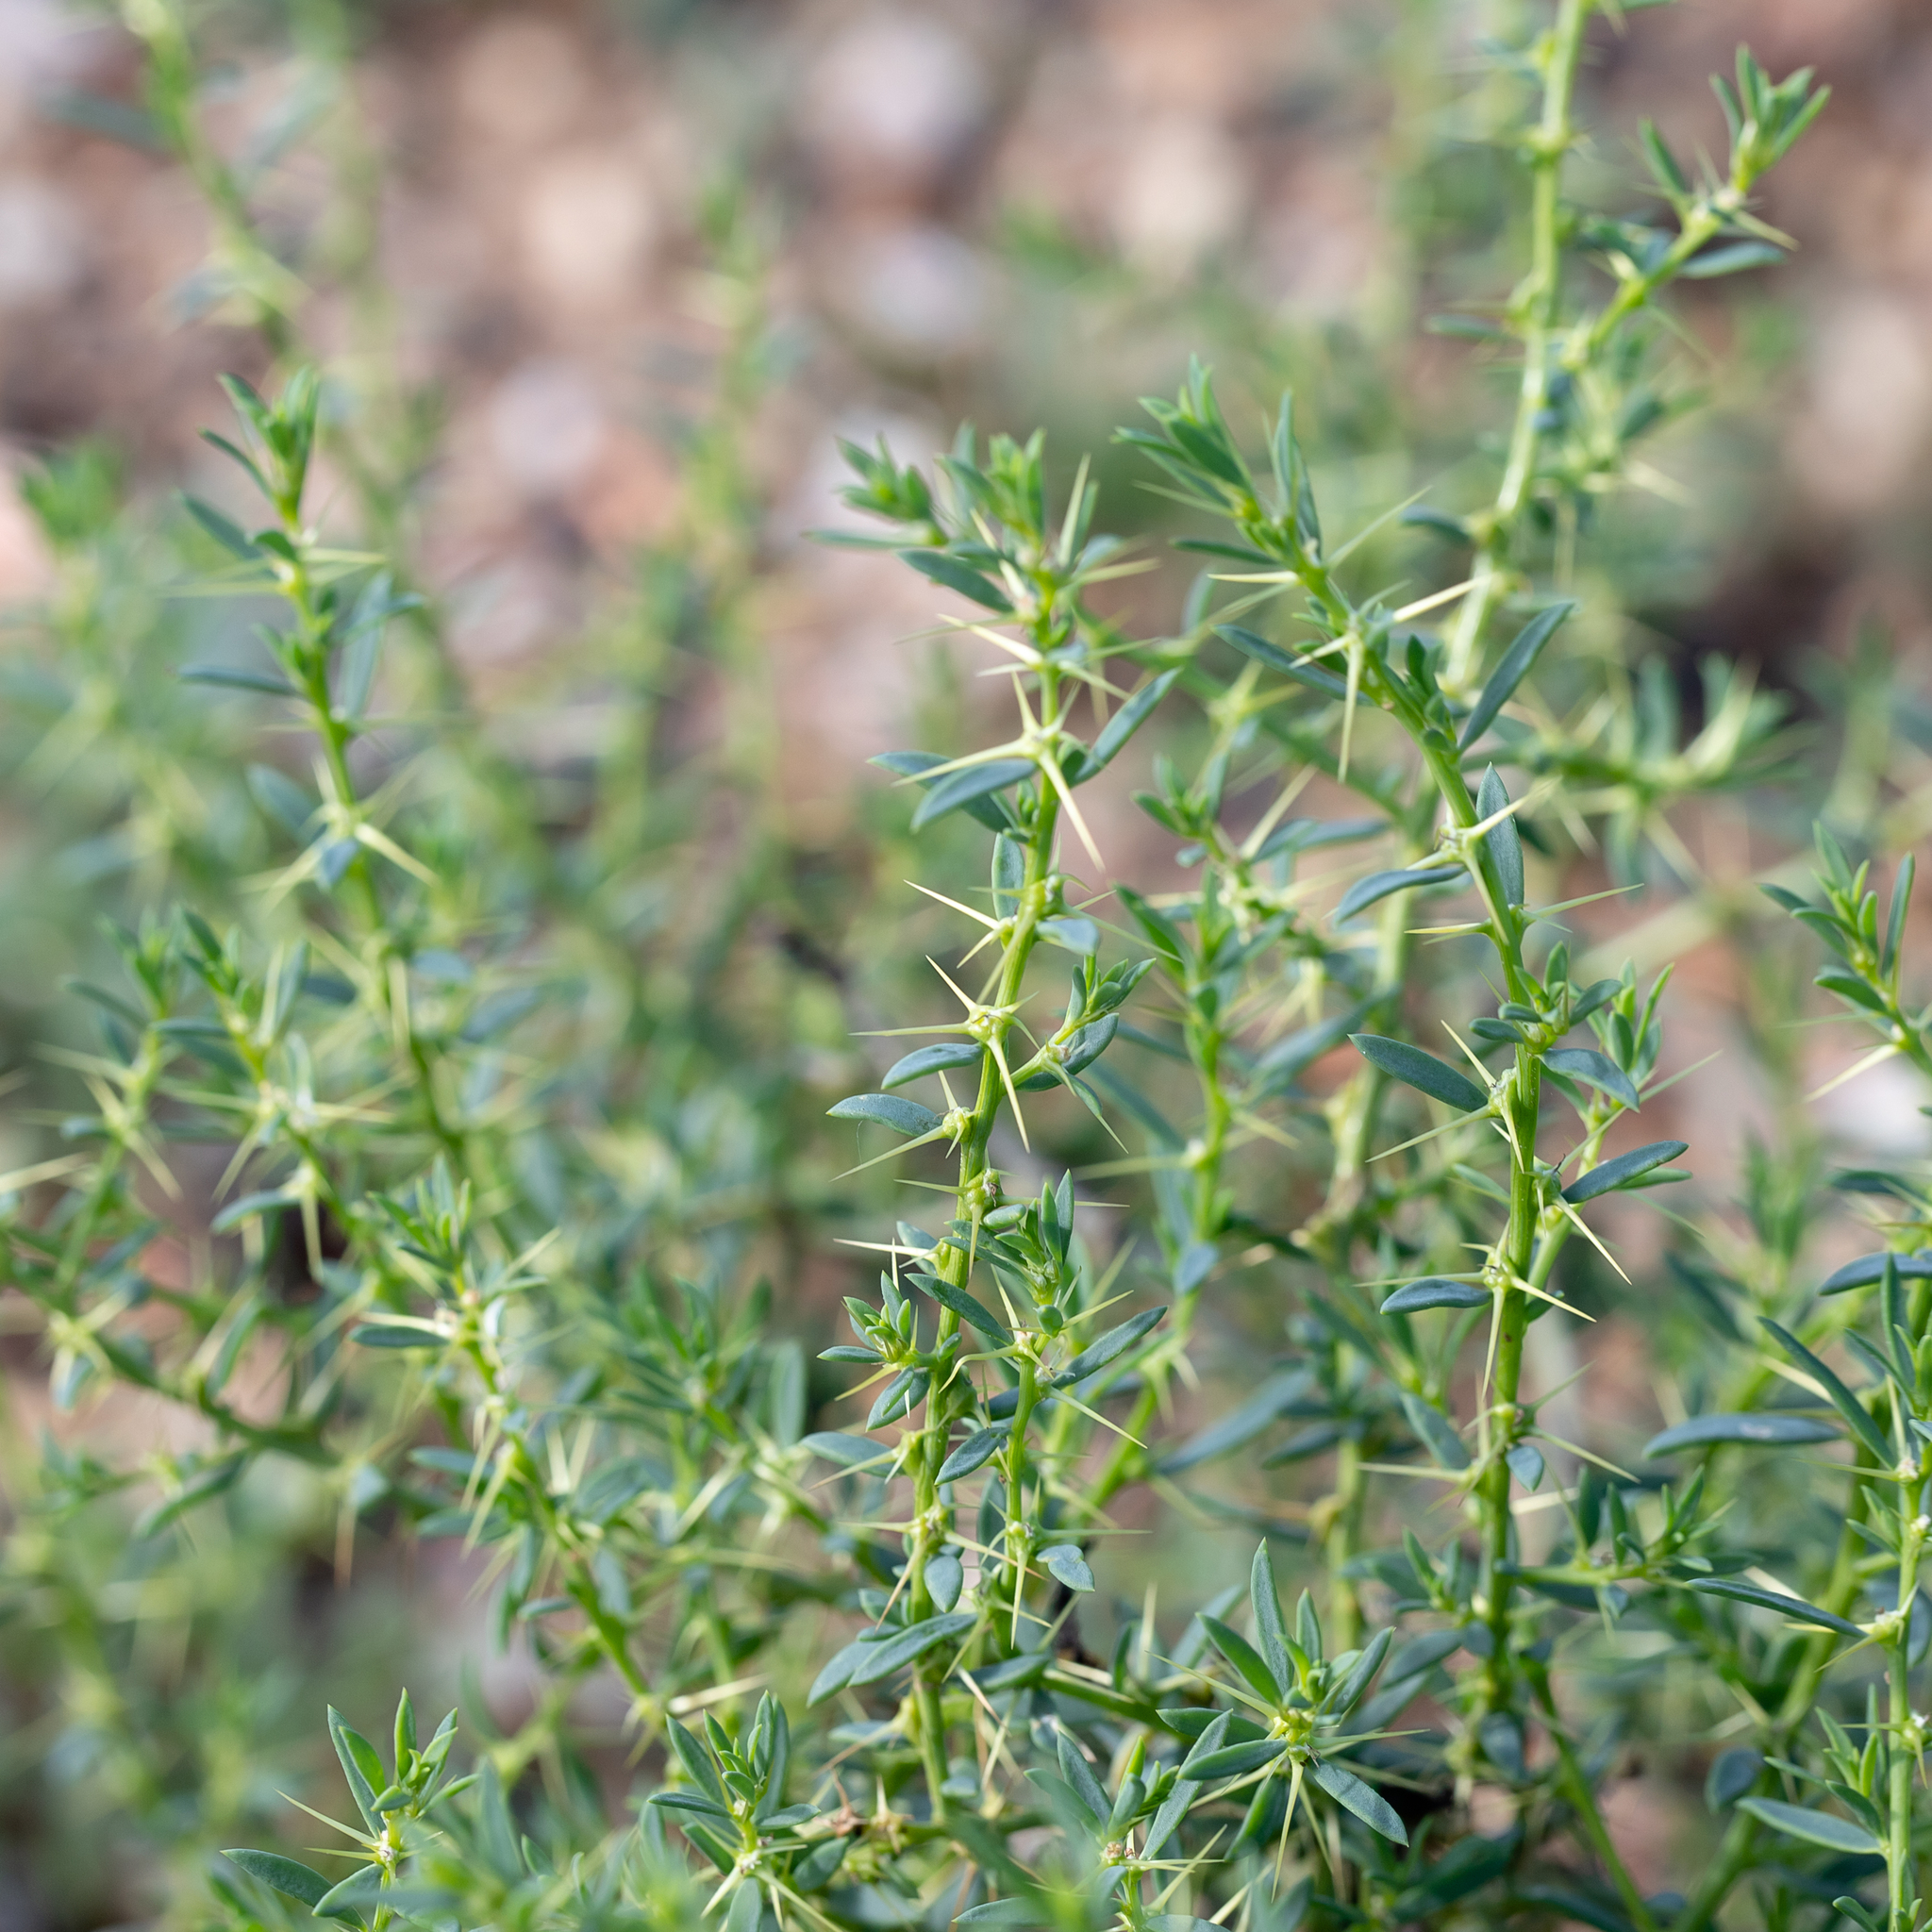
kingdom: Plantae
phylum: Tracheophyta
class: Magnoliopsida
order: Caryophyllales
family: Amaranthaceae
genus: Sclerolaena
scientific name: Sclerolaena muricata
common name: Roly-poly
